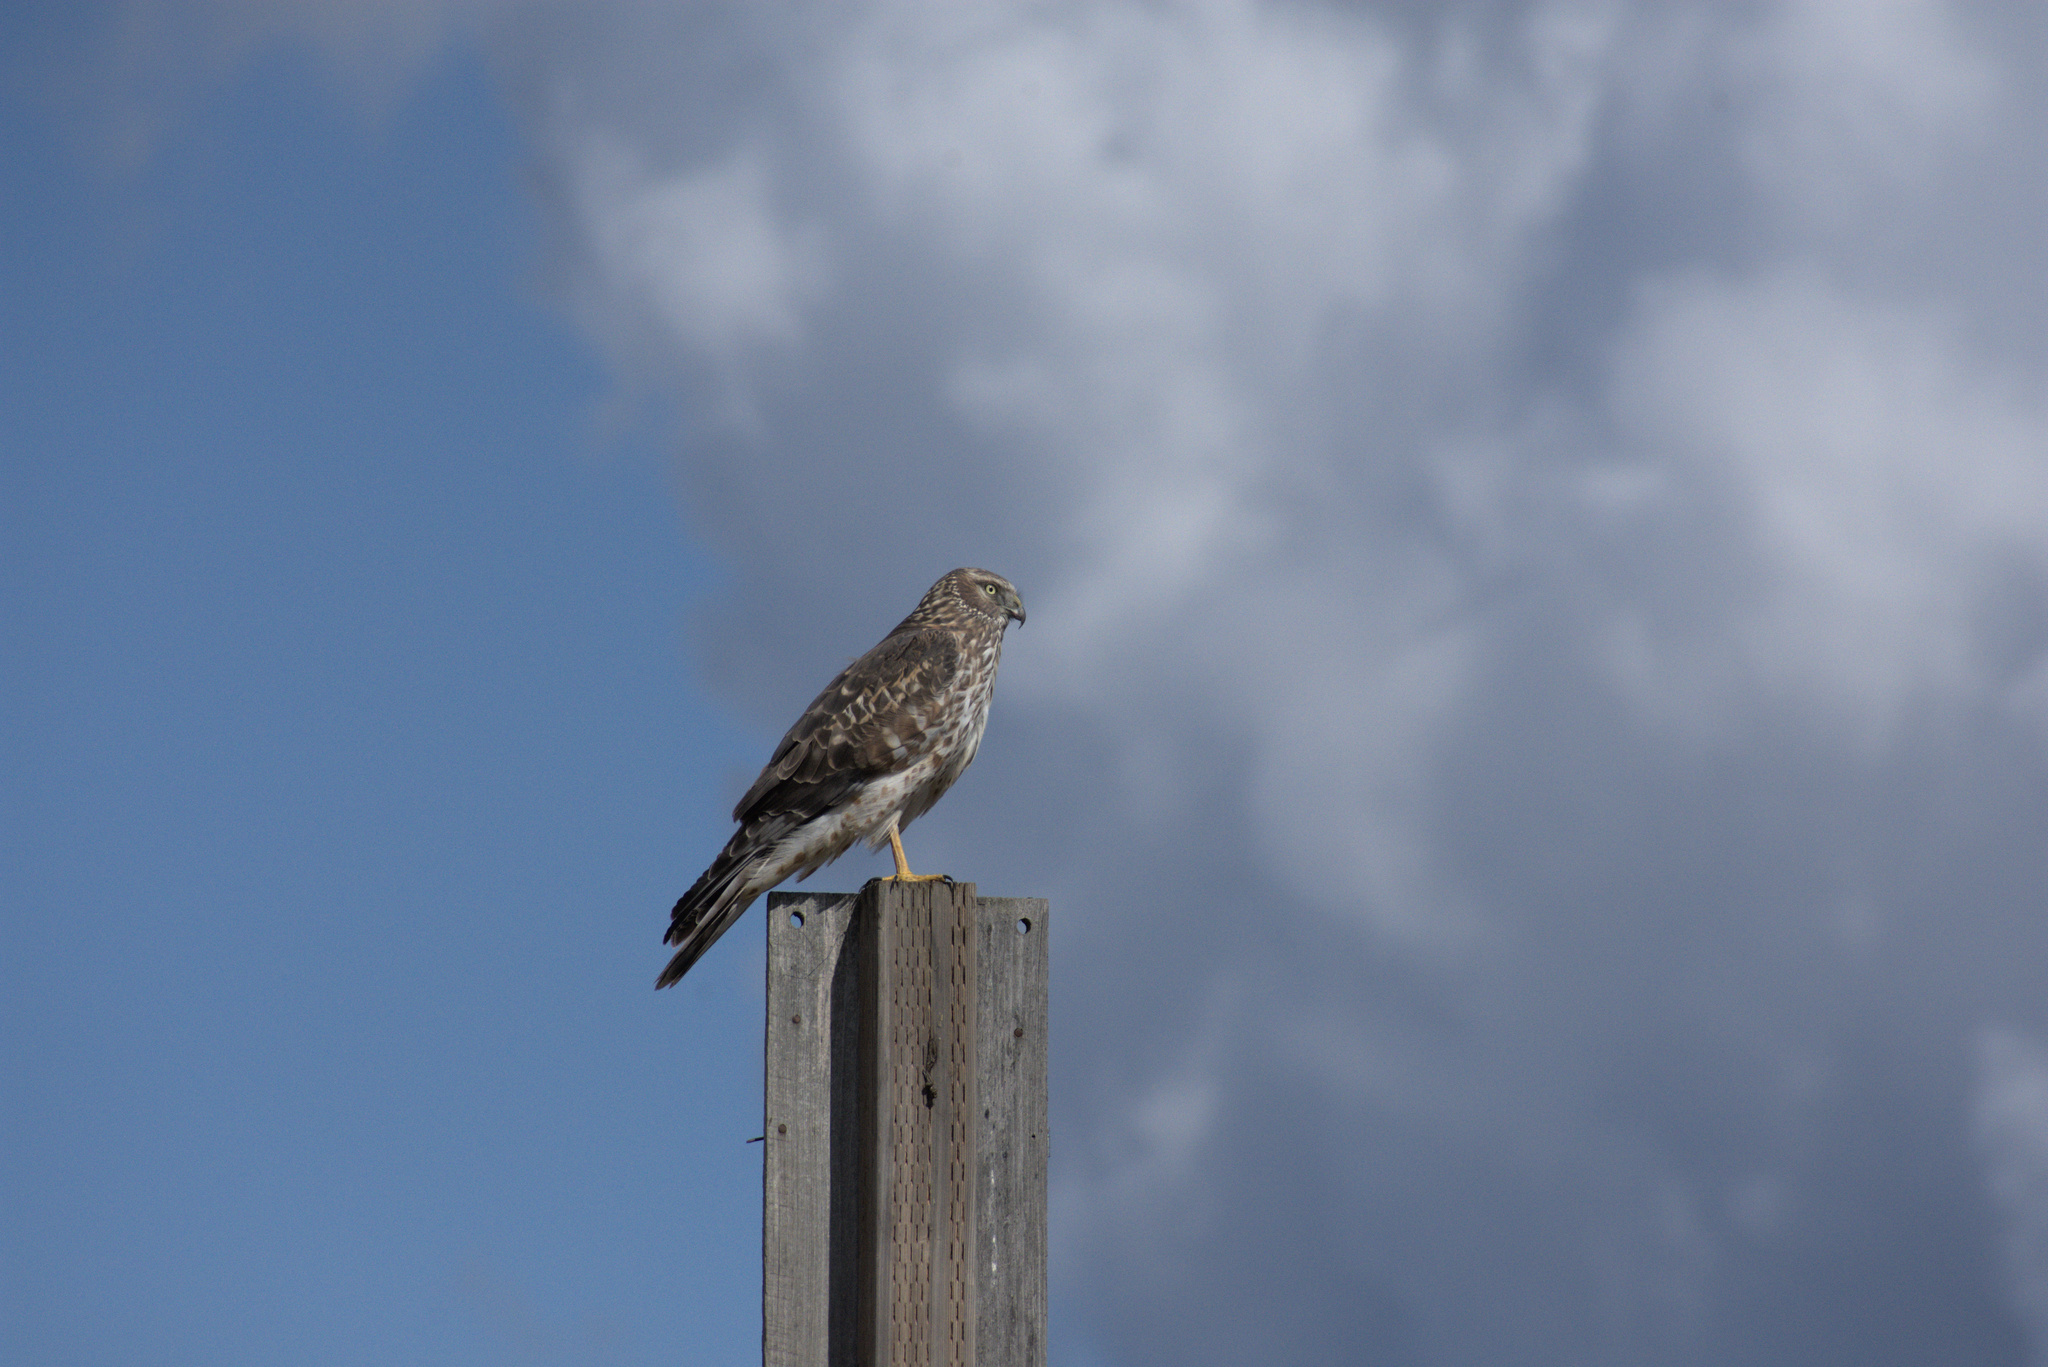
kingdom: Animalia
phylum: Chordata
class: Aves
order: Accipitriformes
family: Accipitridae
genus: Circus
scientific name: Circus cyaneus
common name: Hen harrier
